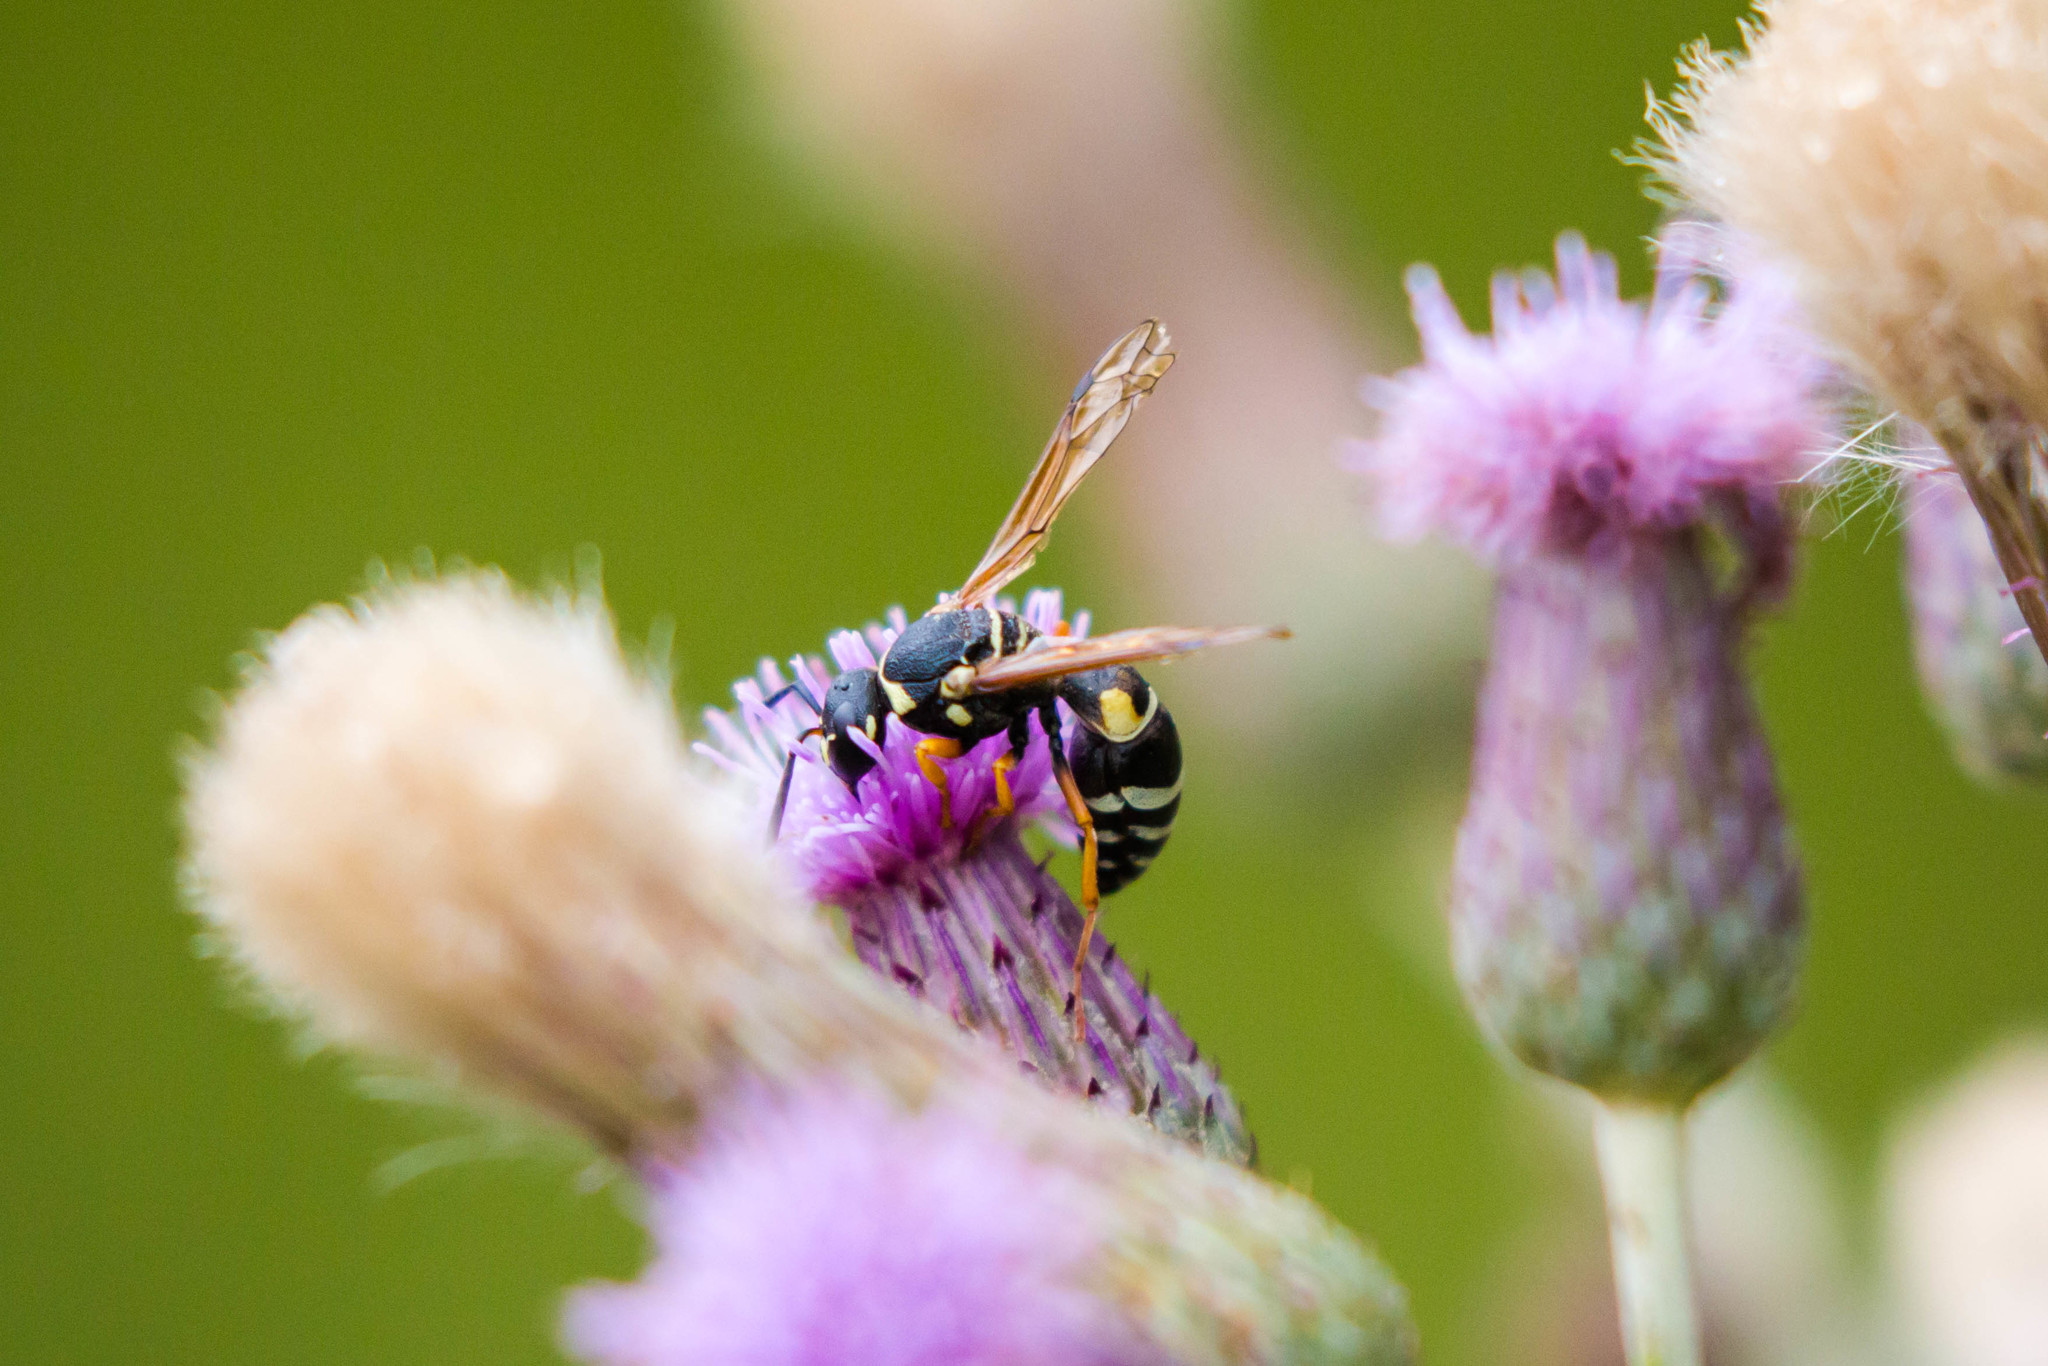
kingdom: Animalia
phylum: Arthropoda
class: Insecta
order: Hymenoptera
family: Vespidae
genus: Pseudepipona
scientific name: Pseudepipona aldrichi
